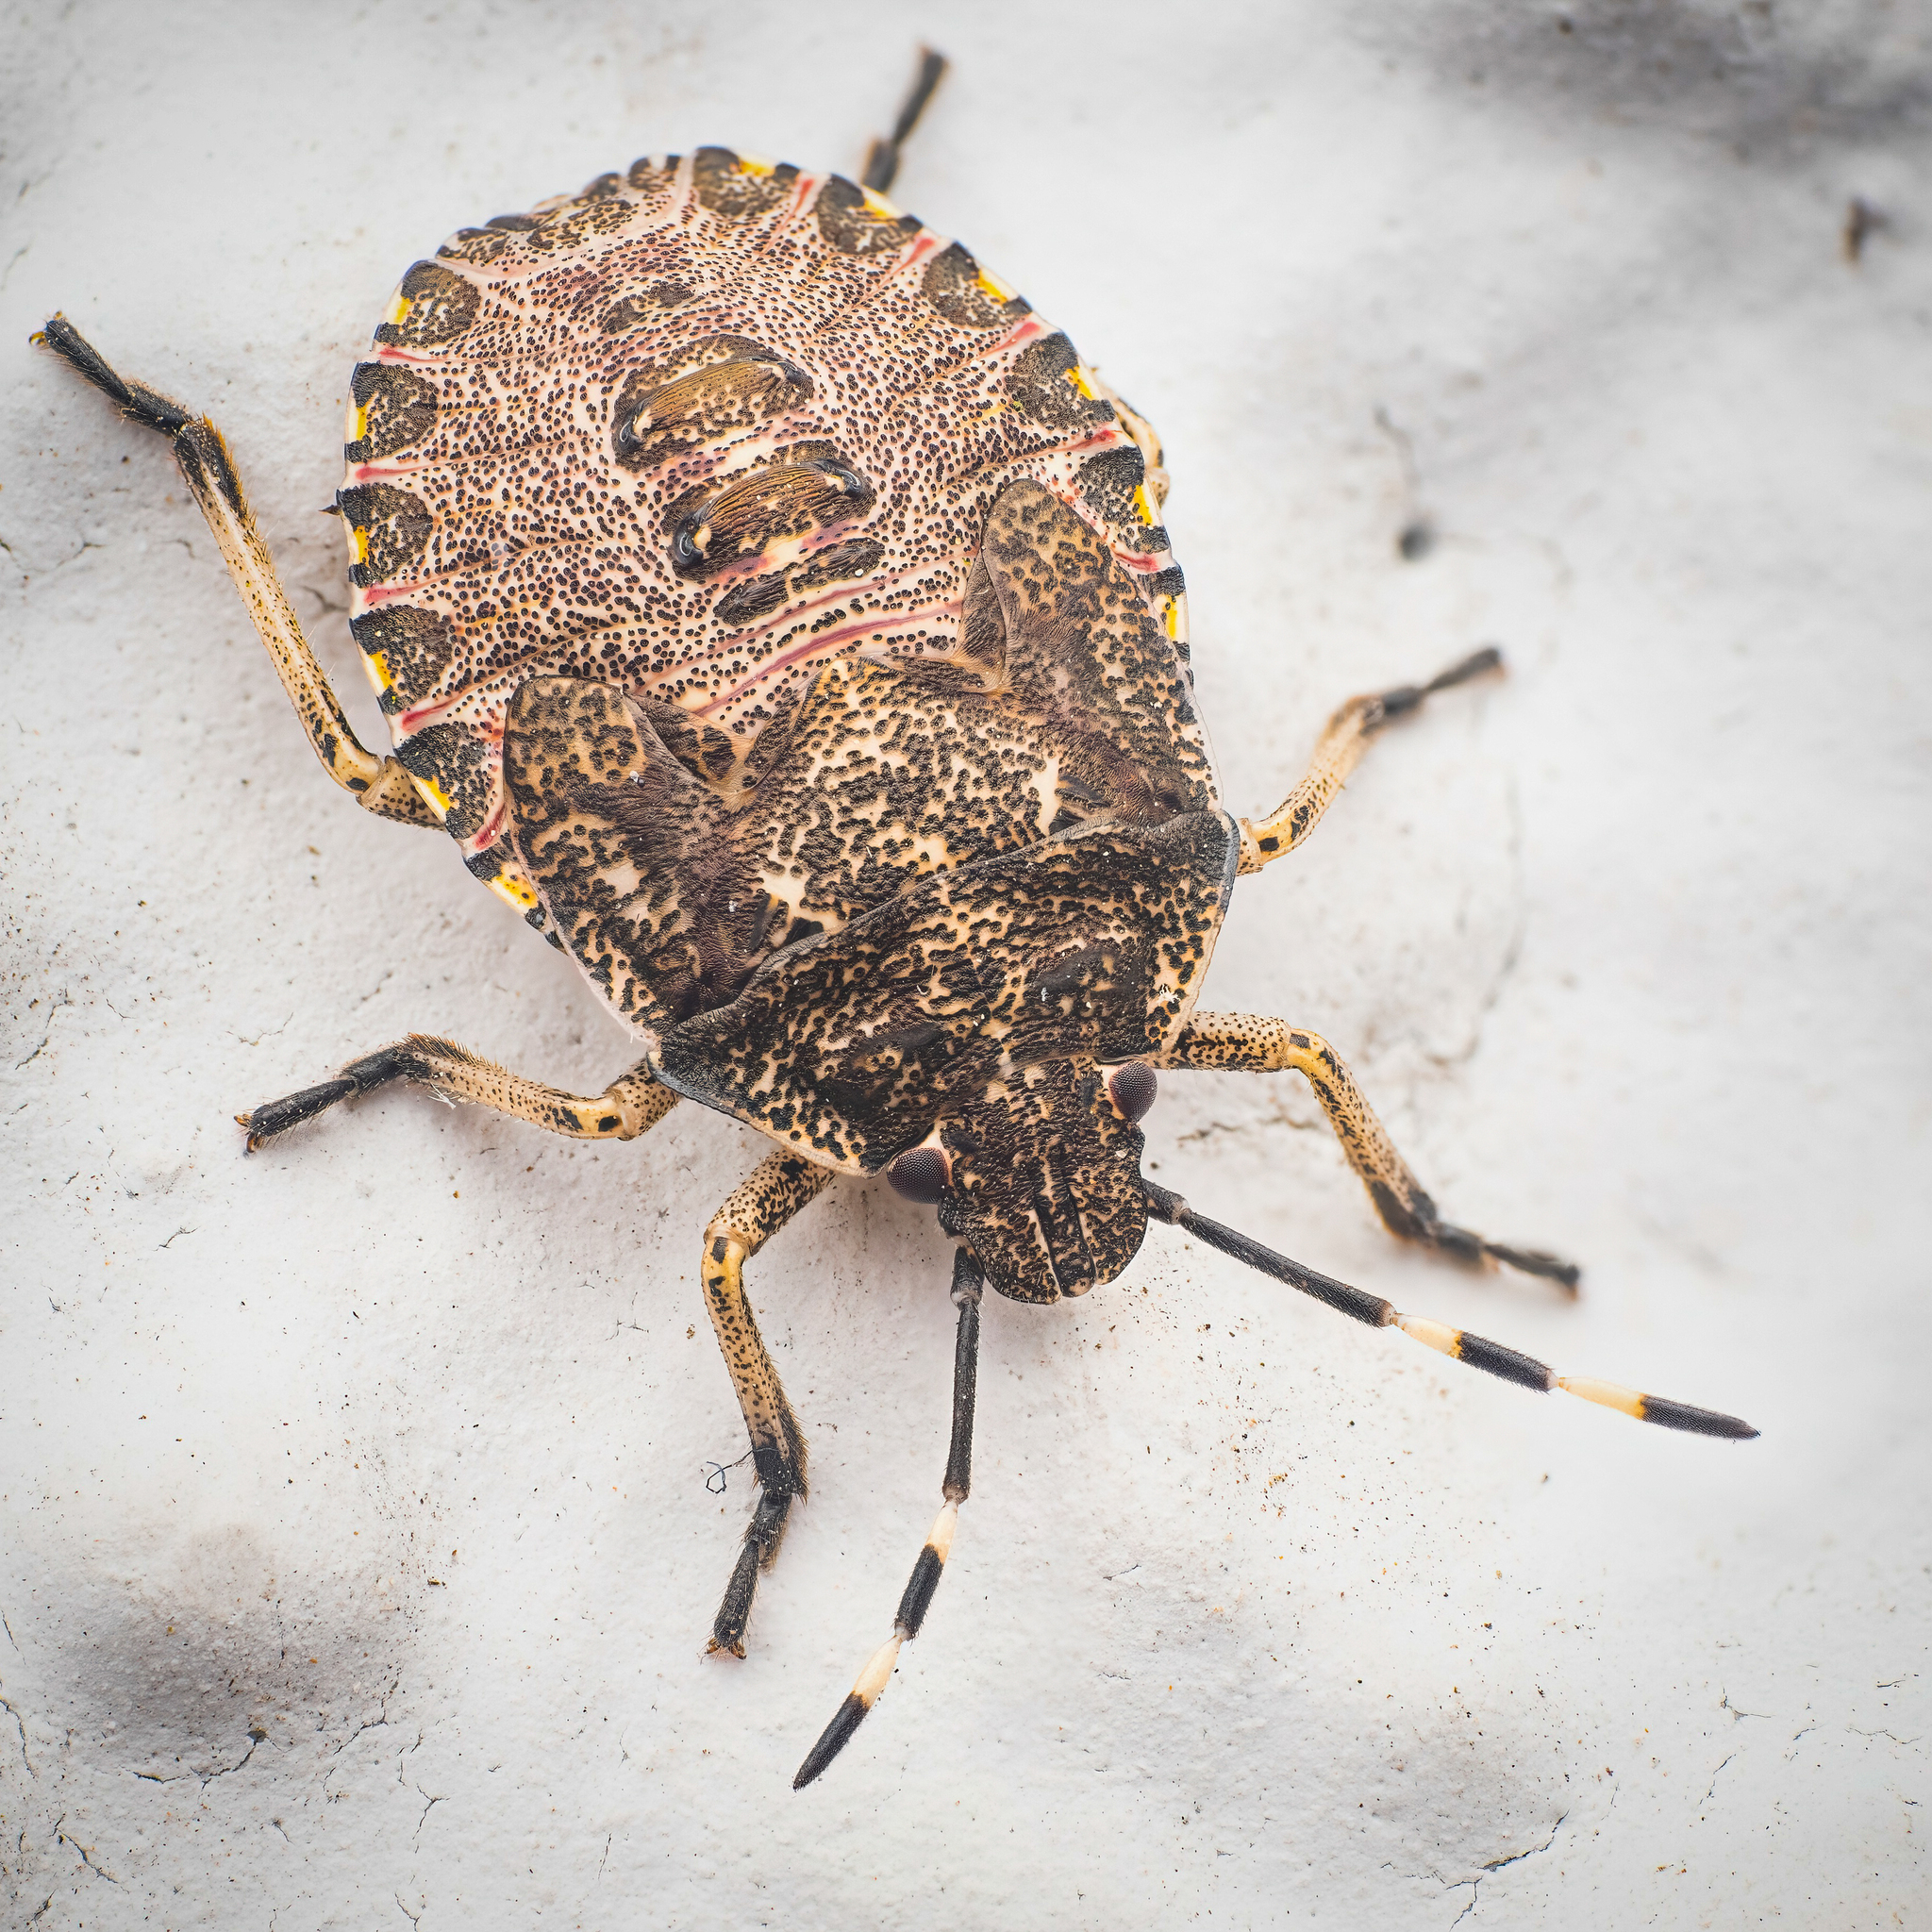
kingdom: Animalia
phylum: Arthropoda
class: Insecta
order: Hemiptera
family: Pentatomidae
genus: Rhaphigaster
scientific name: Rhaphigaster nebulosa
